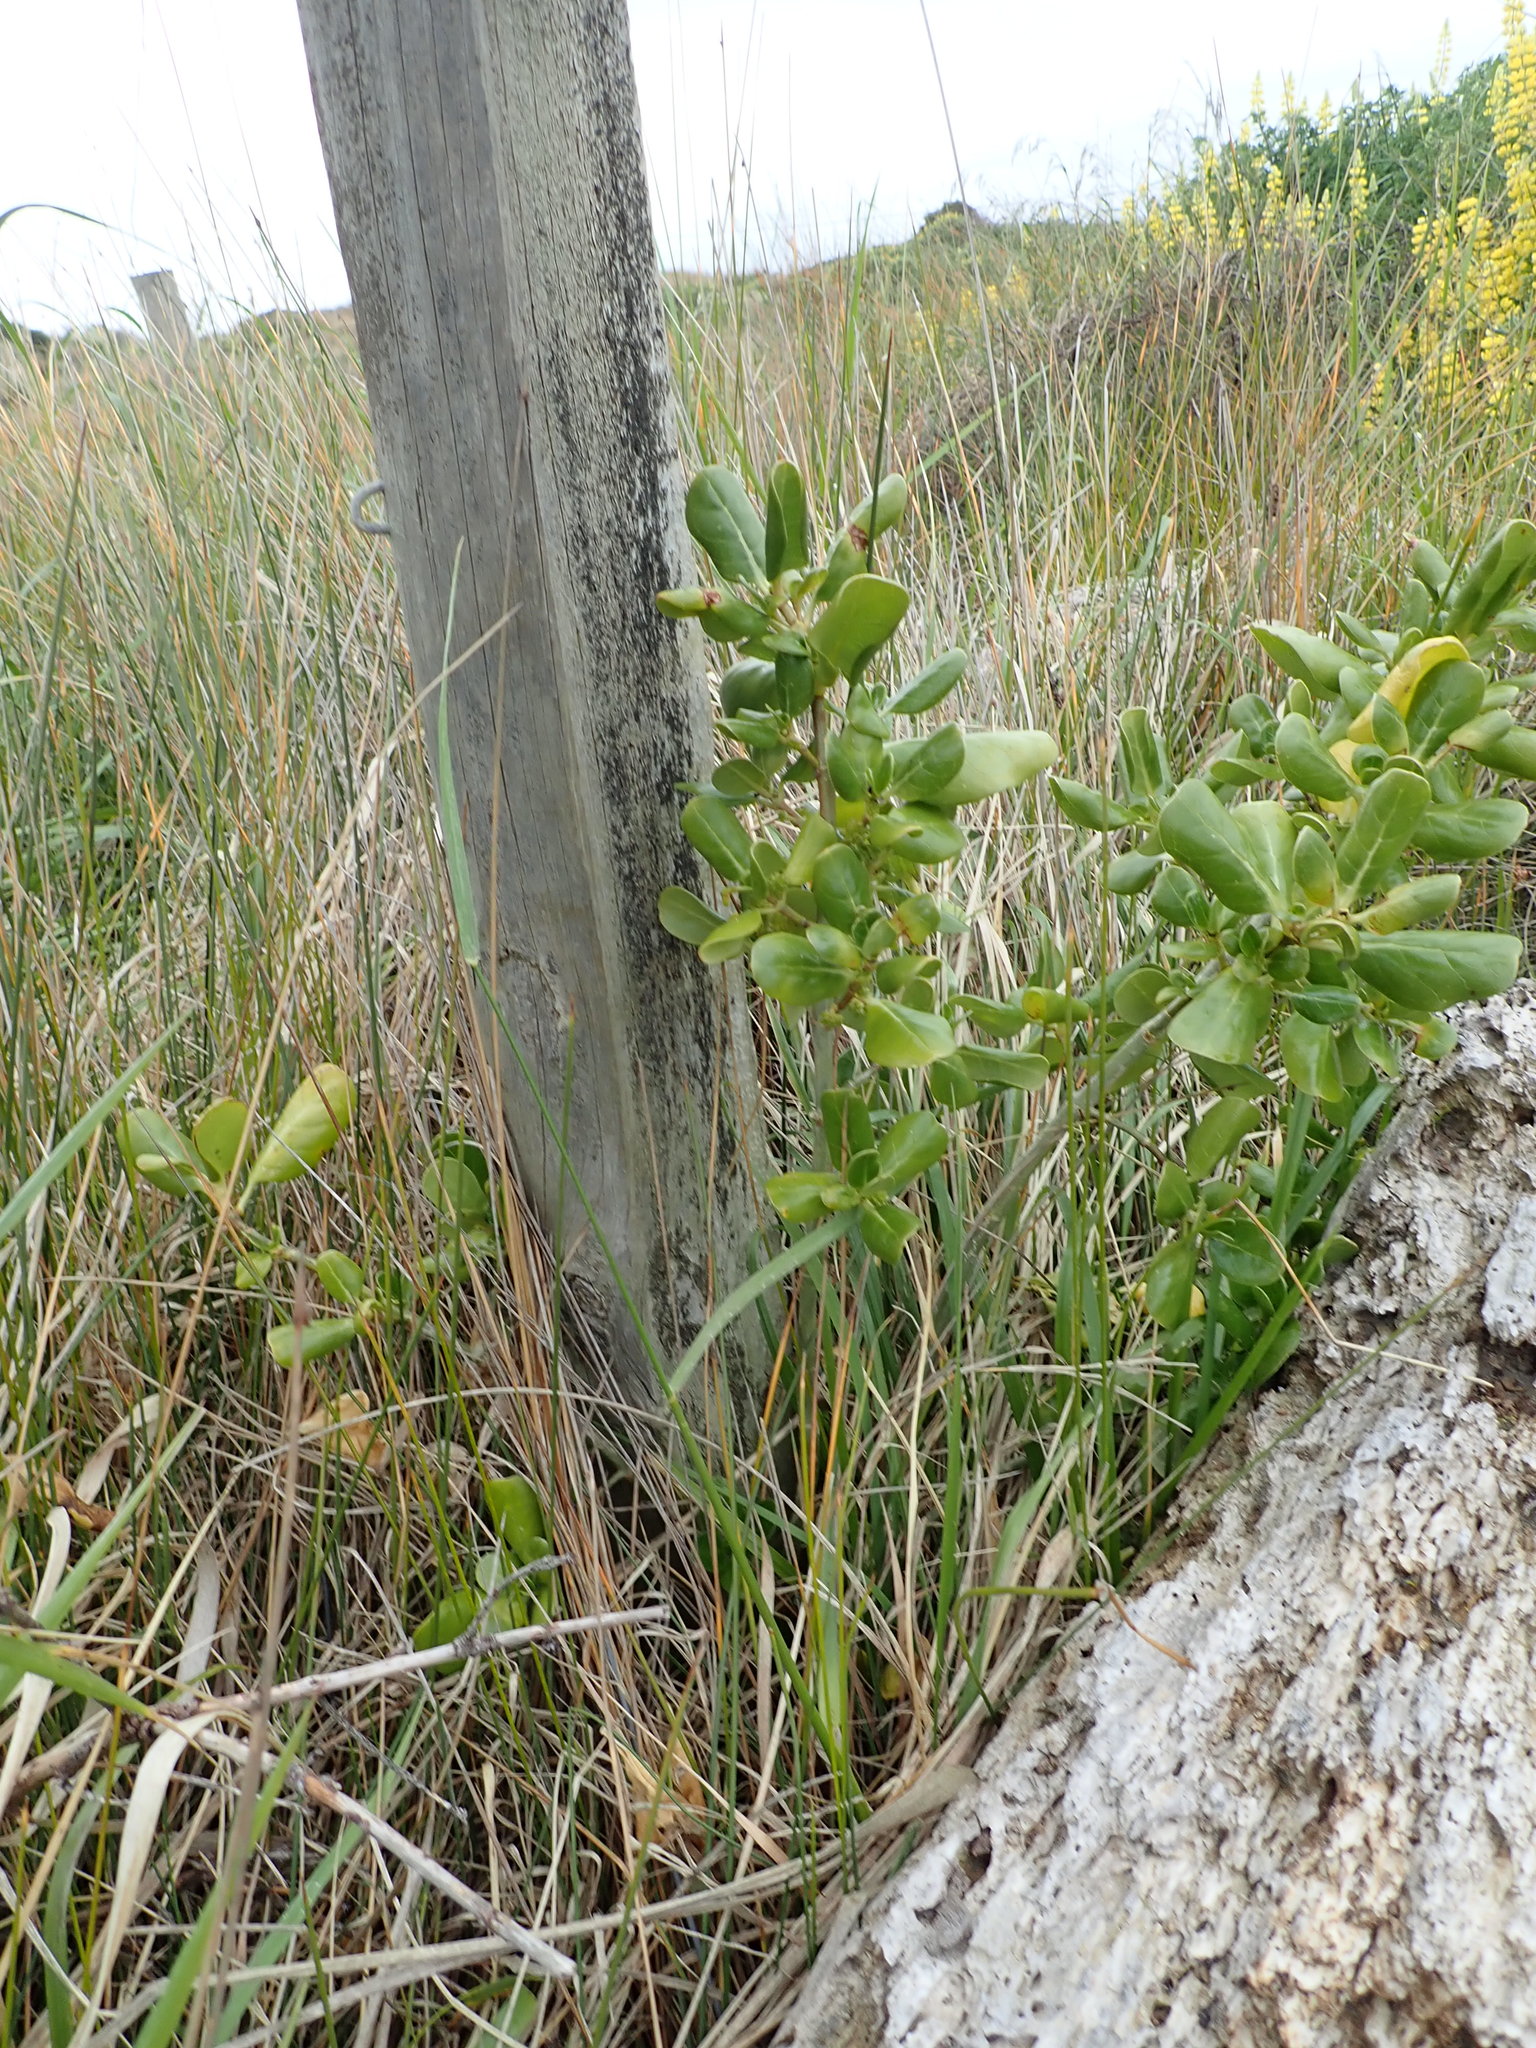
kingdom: Plantae
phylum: Tracheophyta
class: Magnoliopsida
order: Gentianales
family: Rubiaceae
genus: Coprosma
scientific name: Coprosma repens
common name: Tree bedstraw
